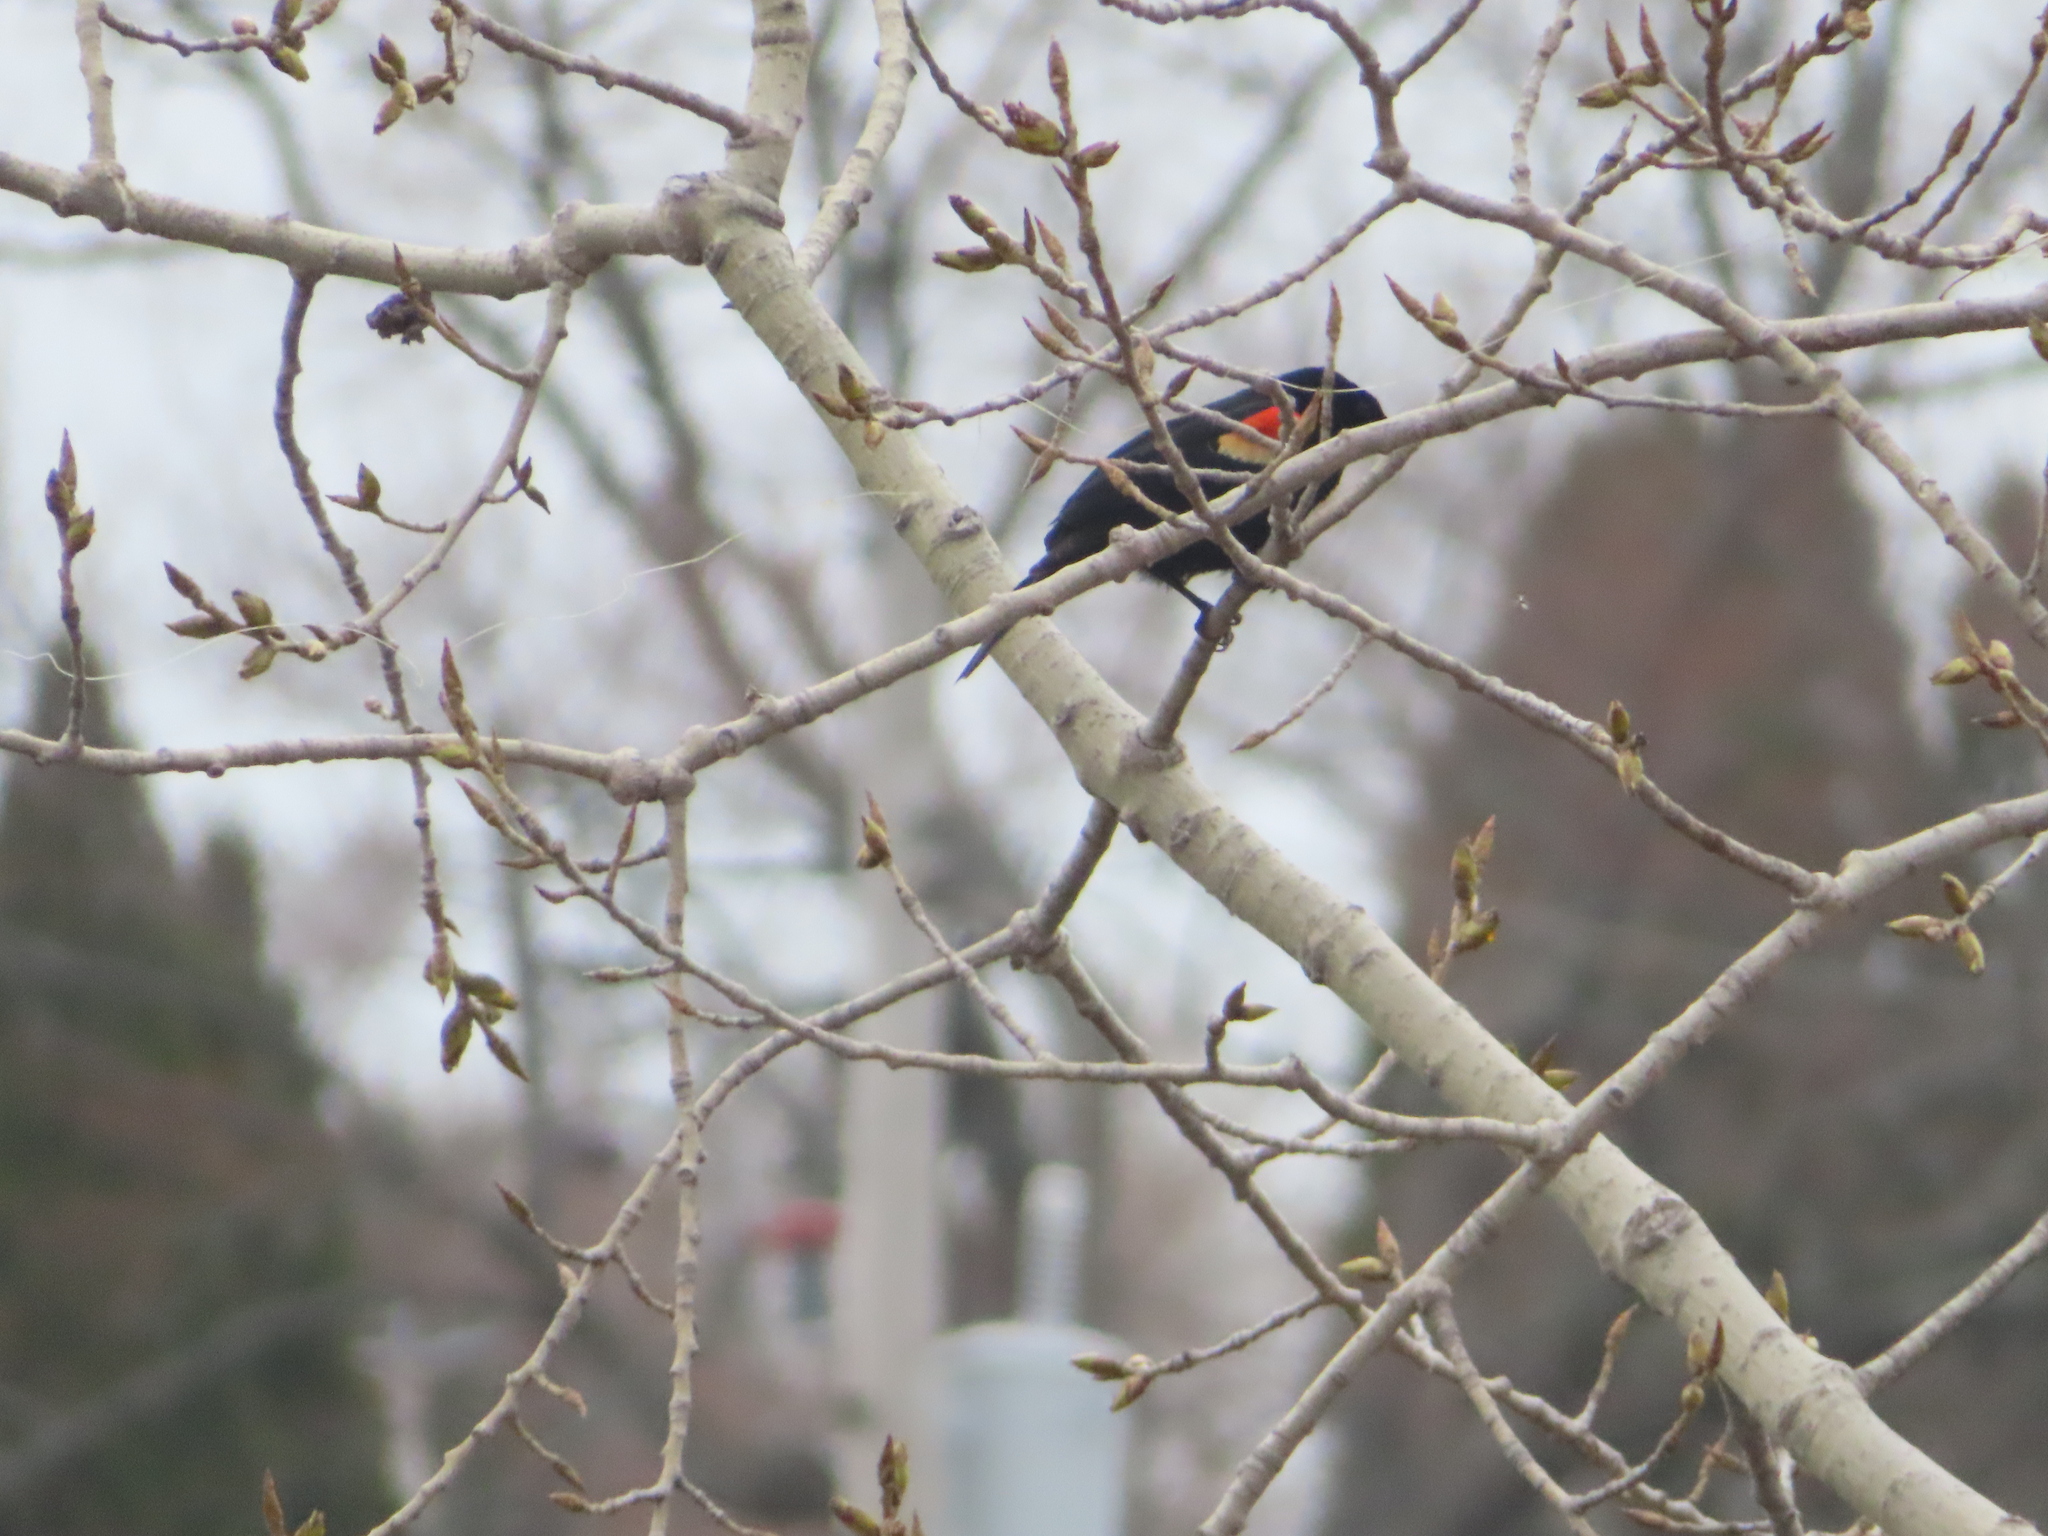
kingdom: Animalia
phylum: Chordata
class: Aves
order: Passeriformes
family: Icteridae
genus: Agelaius
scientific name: Agelaius phoeniceus
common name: Red-winged blackbird
